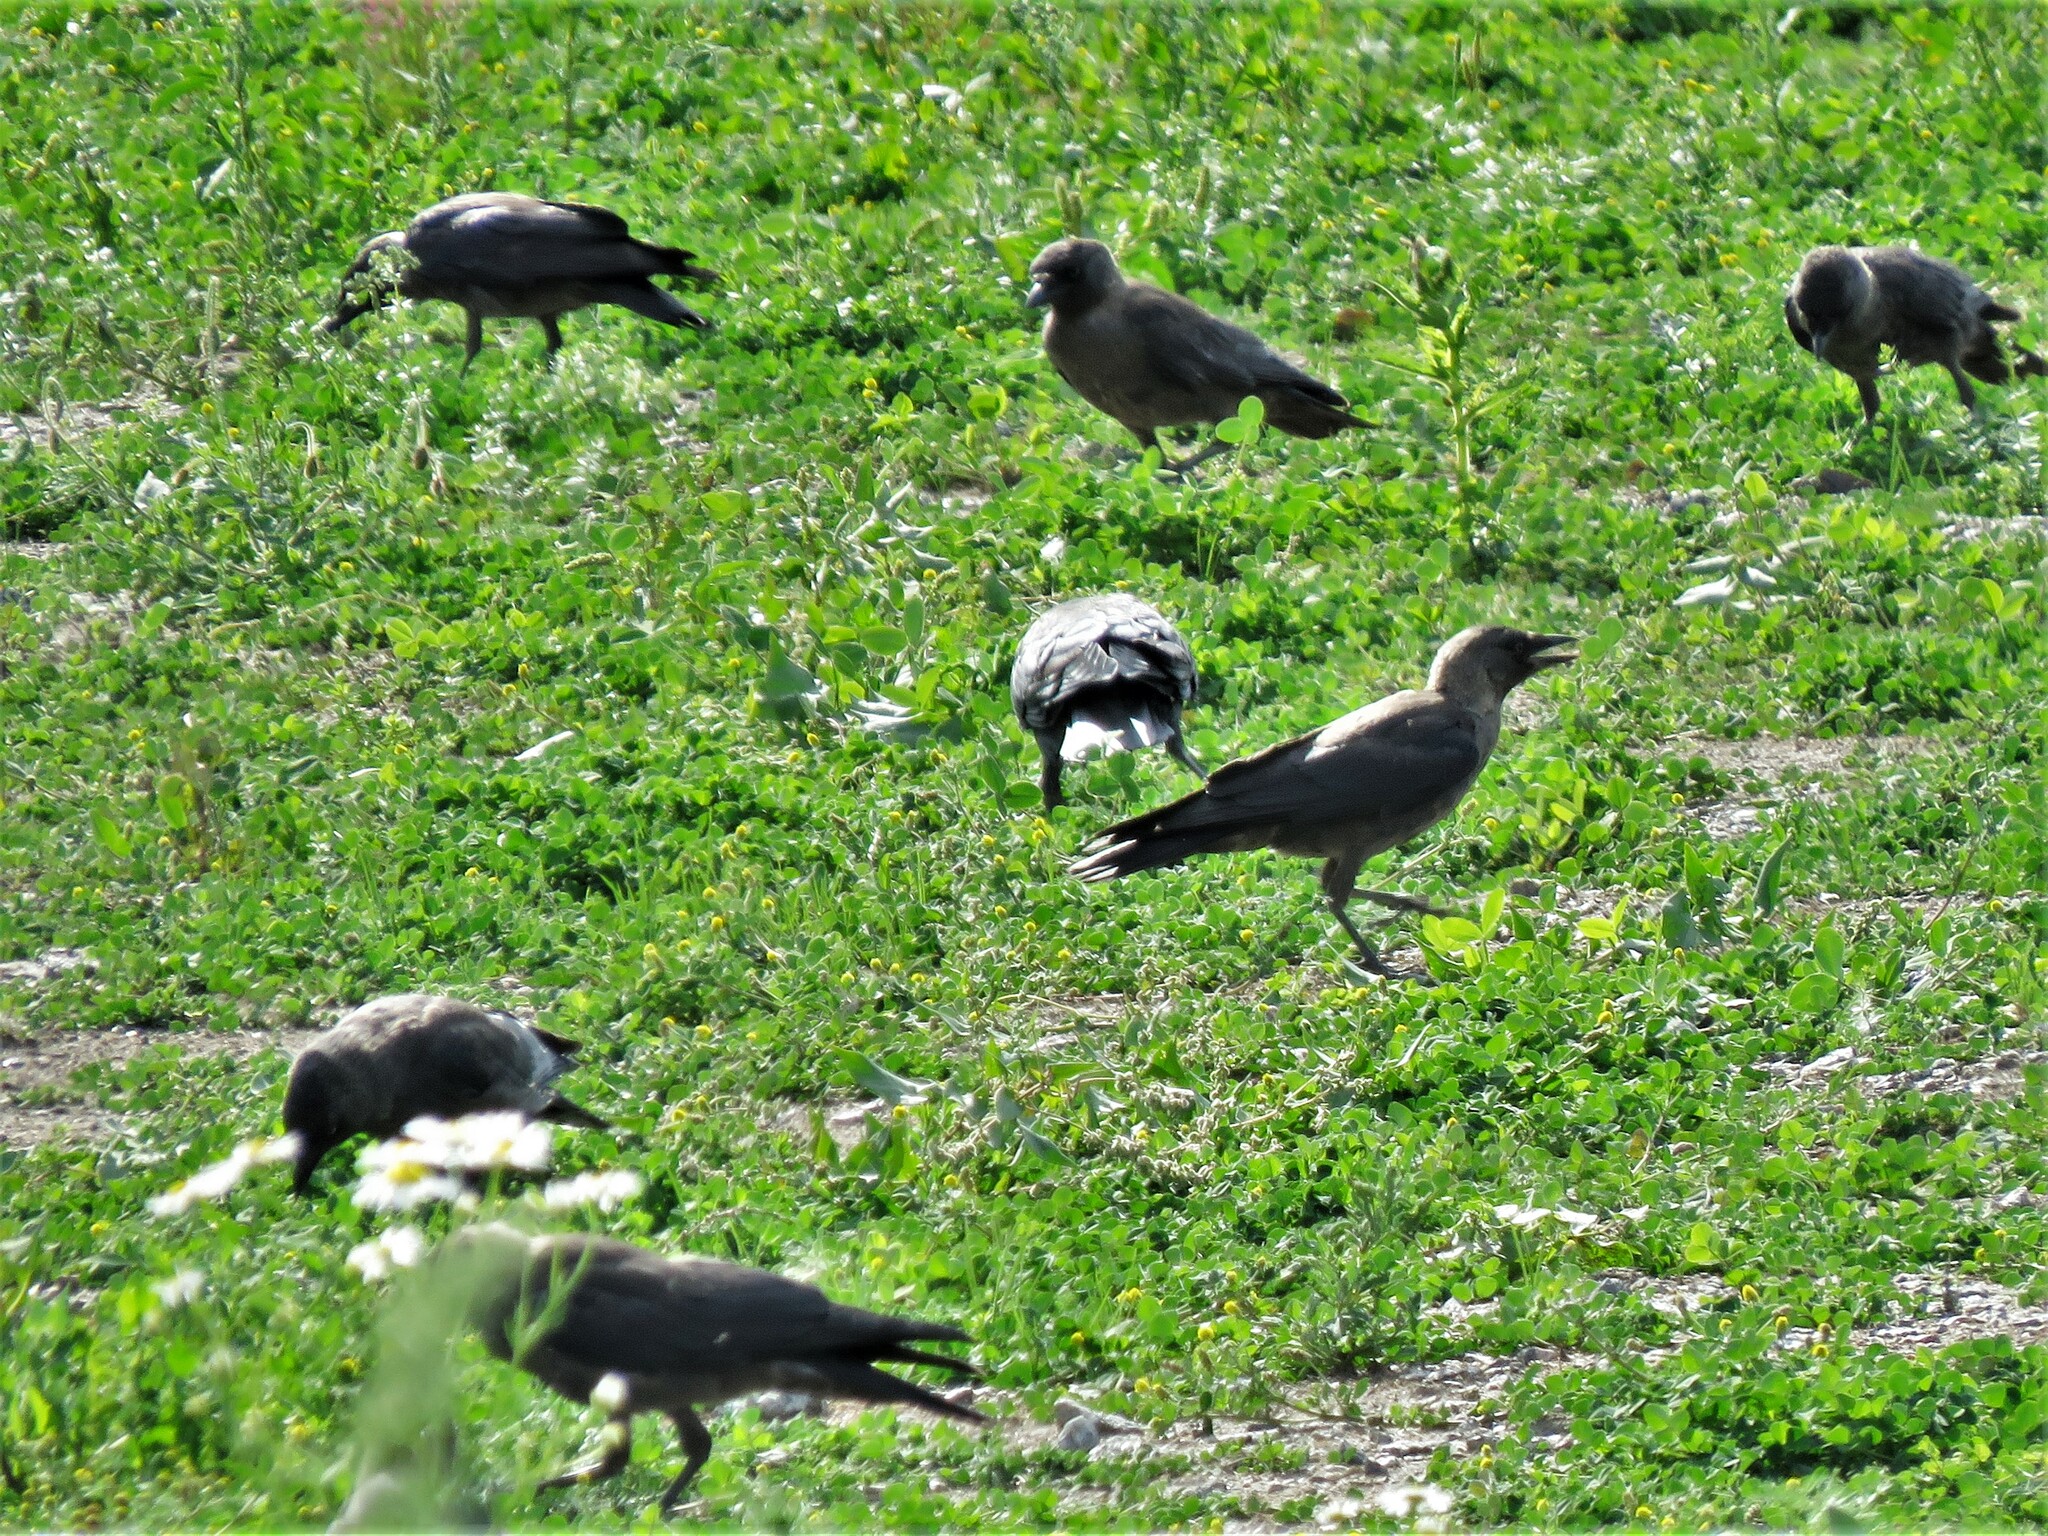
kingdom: Animalia
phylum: Chordata
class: Aves
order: Passeriformes
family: Corvidae
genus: Coloeus
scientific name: Coloeus monedula
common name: Western jackdaw
